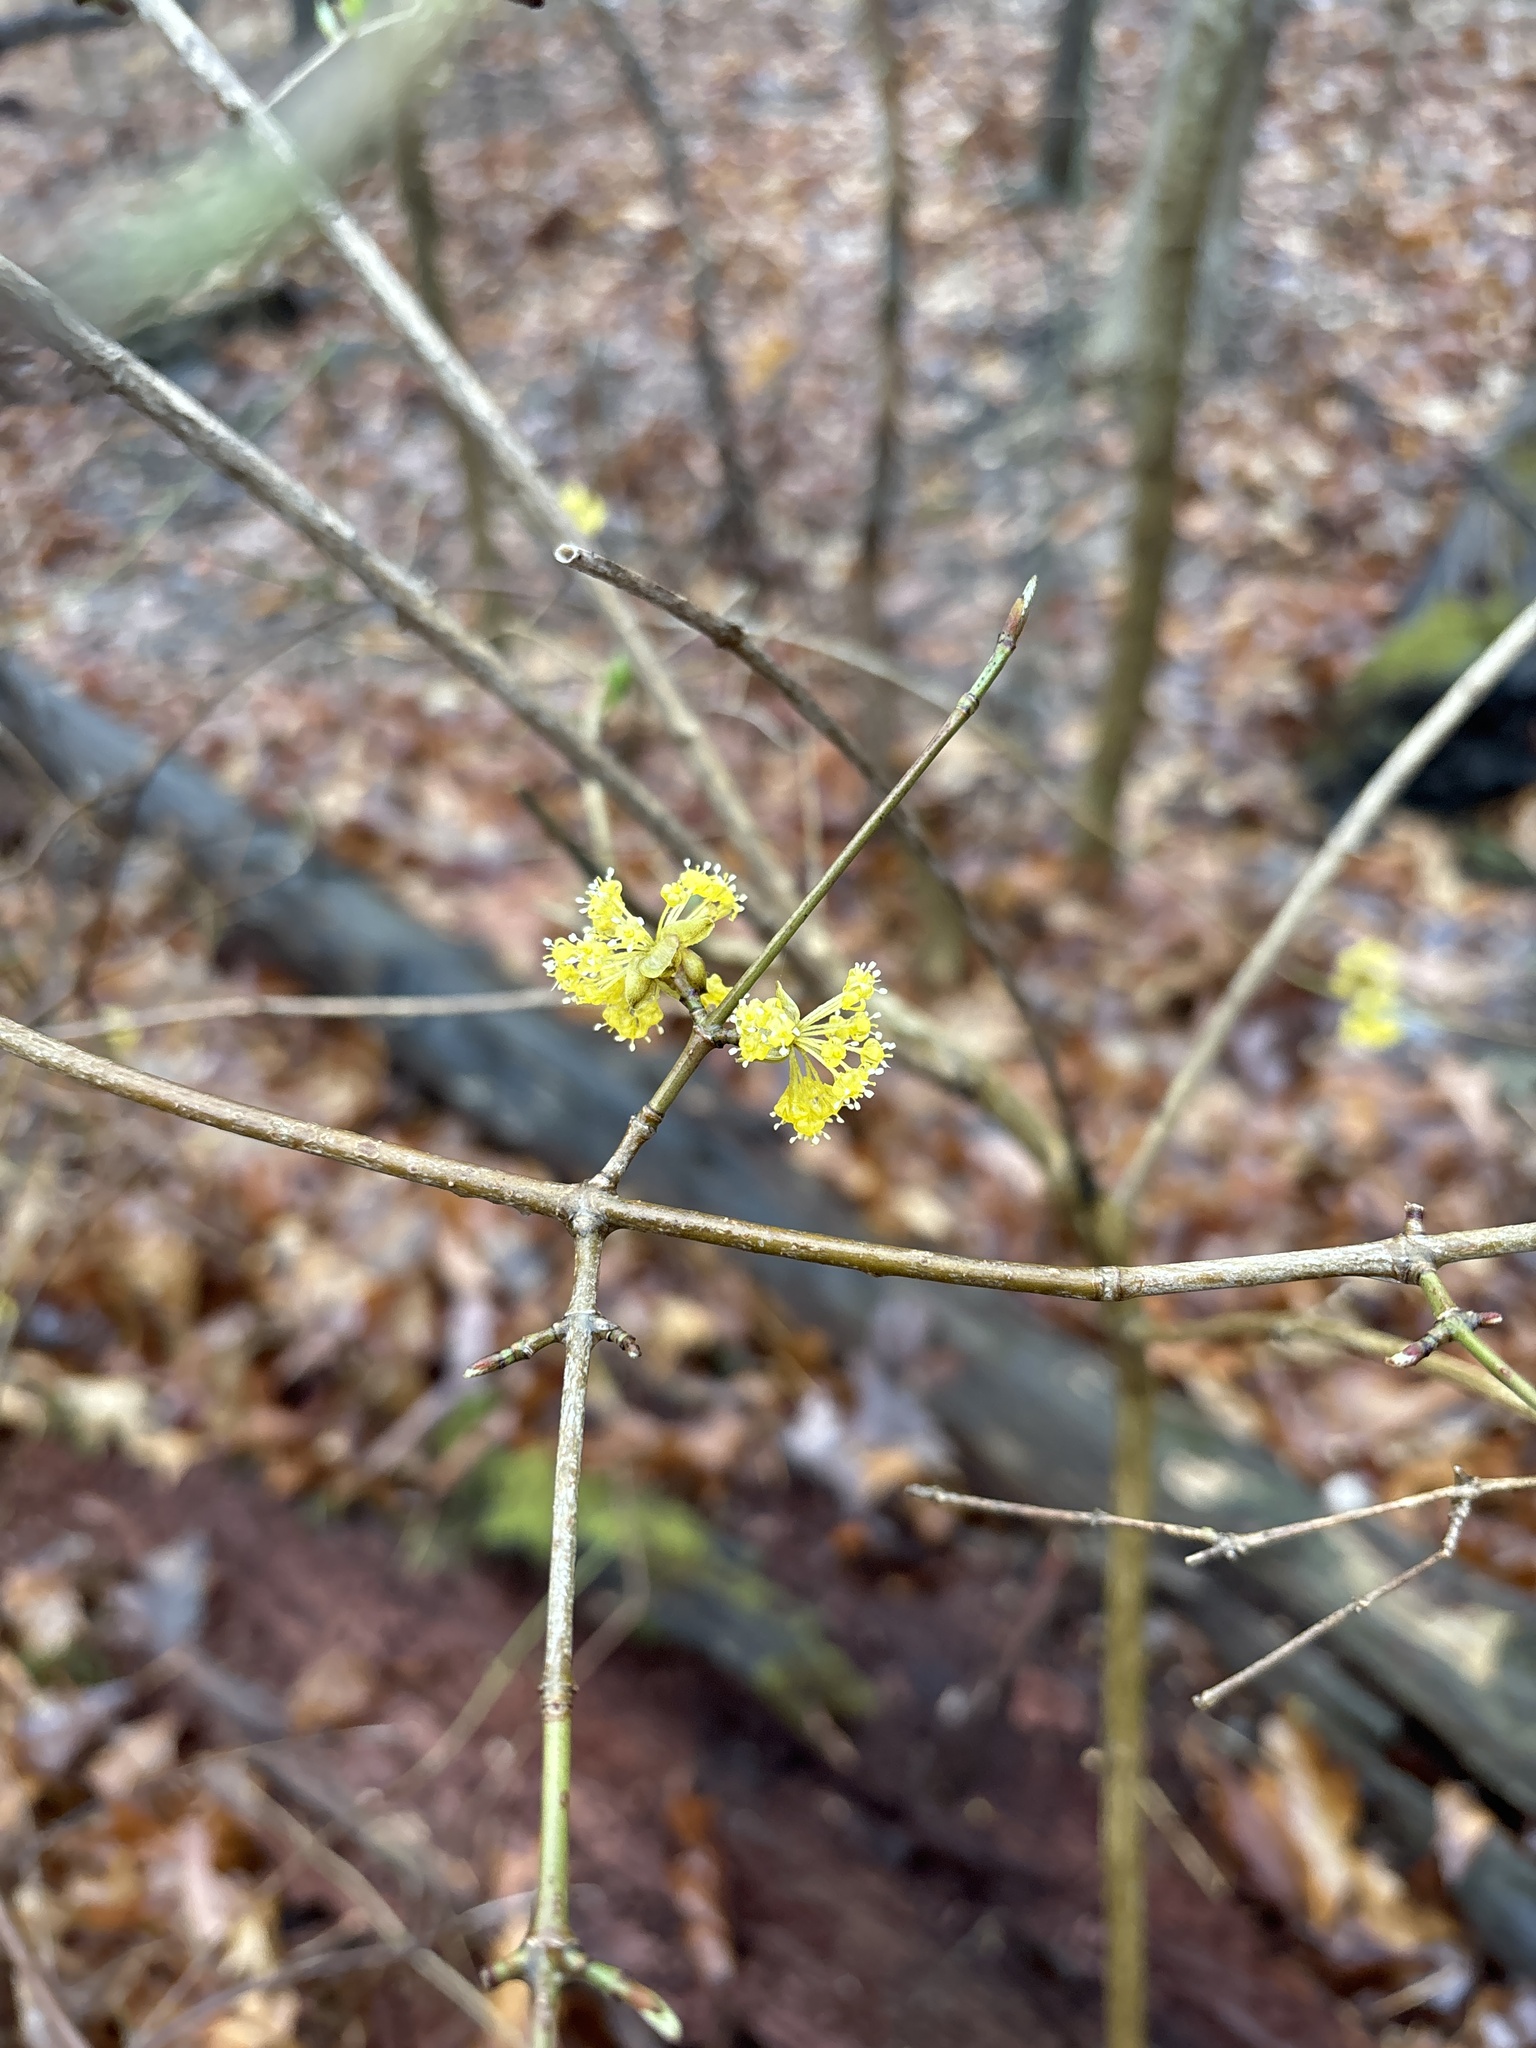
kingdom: Plantae
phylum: Tracheophyta
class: Magnoliopsida
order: Laurales
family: Lauraceae
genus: Lindera
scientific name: Lindera benzoin
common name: Spicebush
